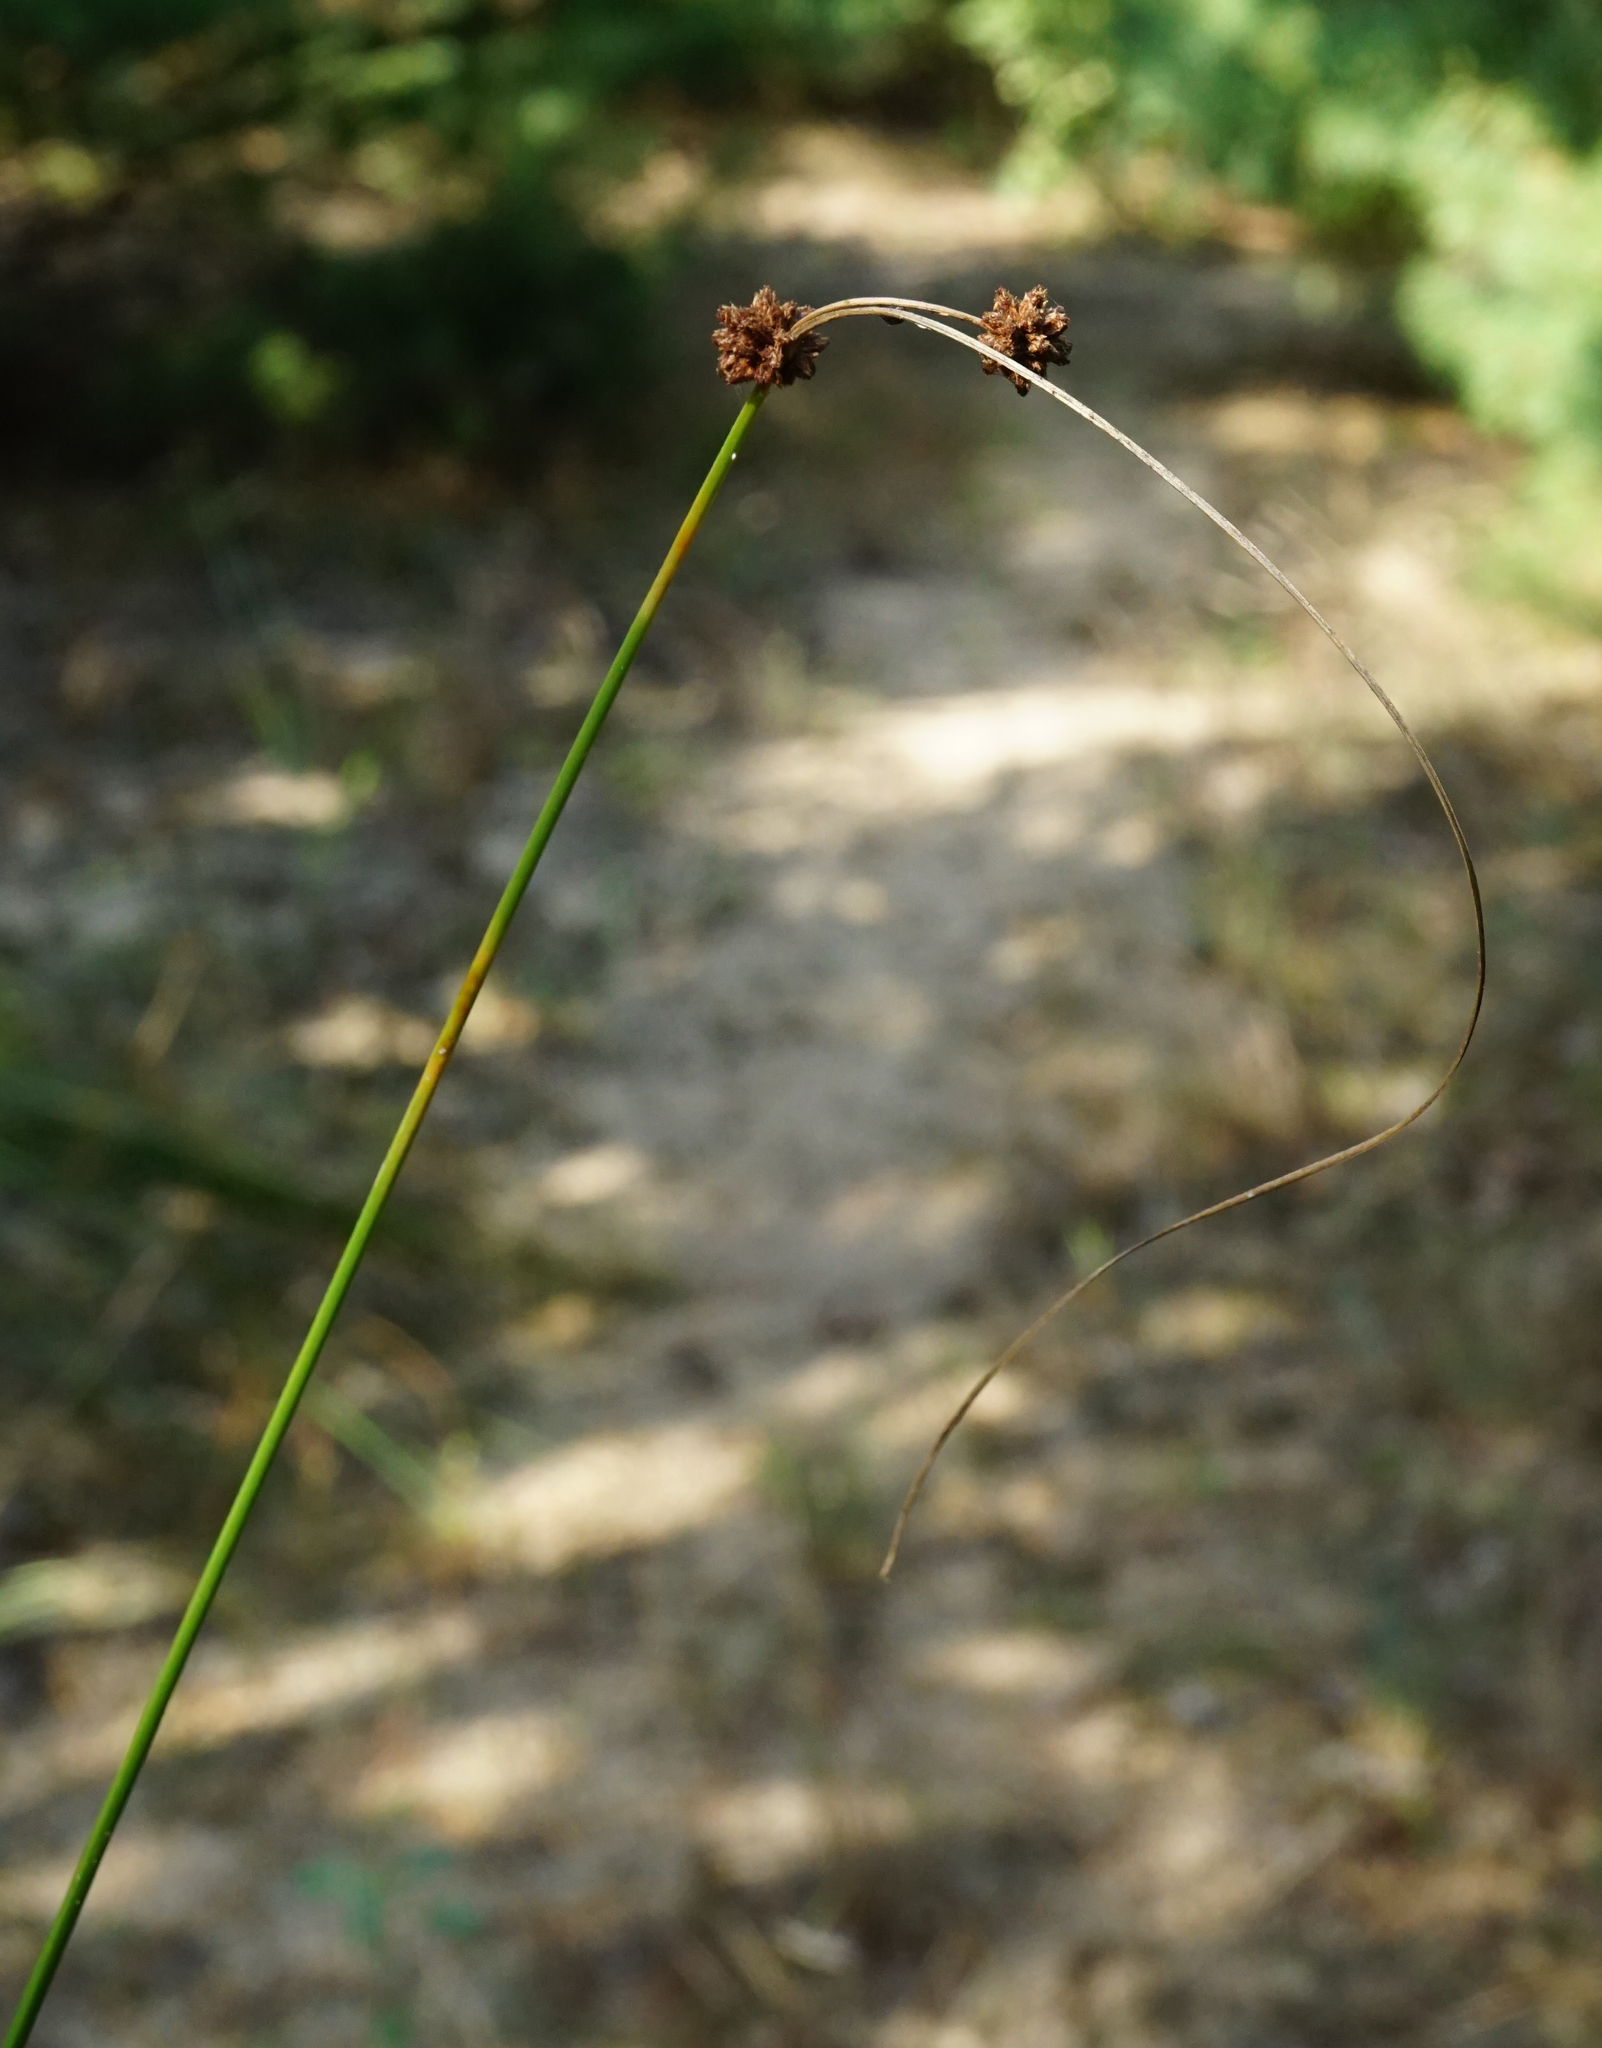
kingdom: Plantae
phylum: Tracheophyta
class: Liliopsida
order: Poales
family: Cyperaceae
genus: Scirpoides
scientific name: Scirpoides holoschoenus
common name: Round-headed club-rush
